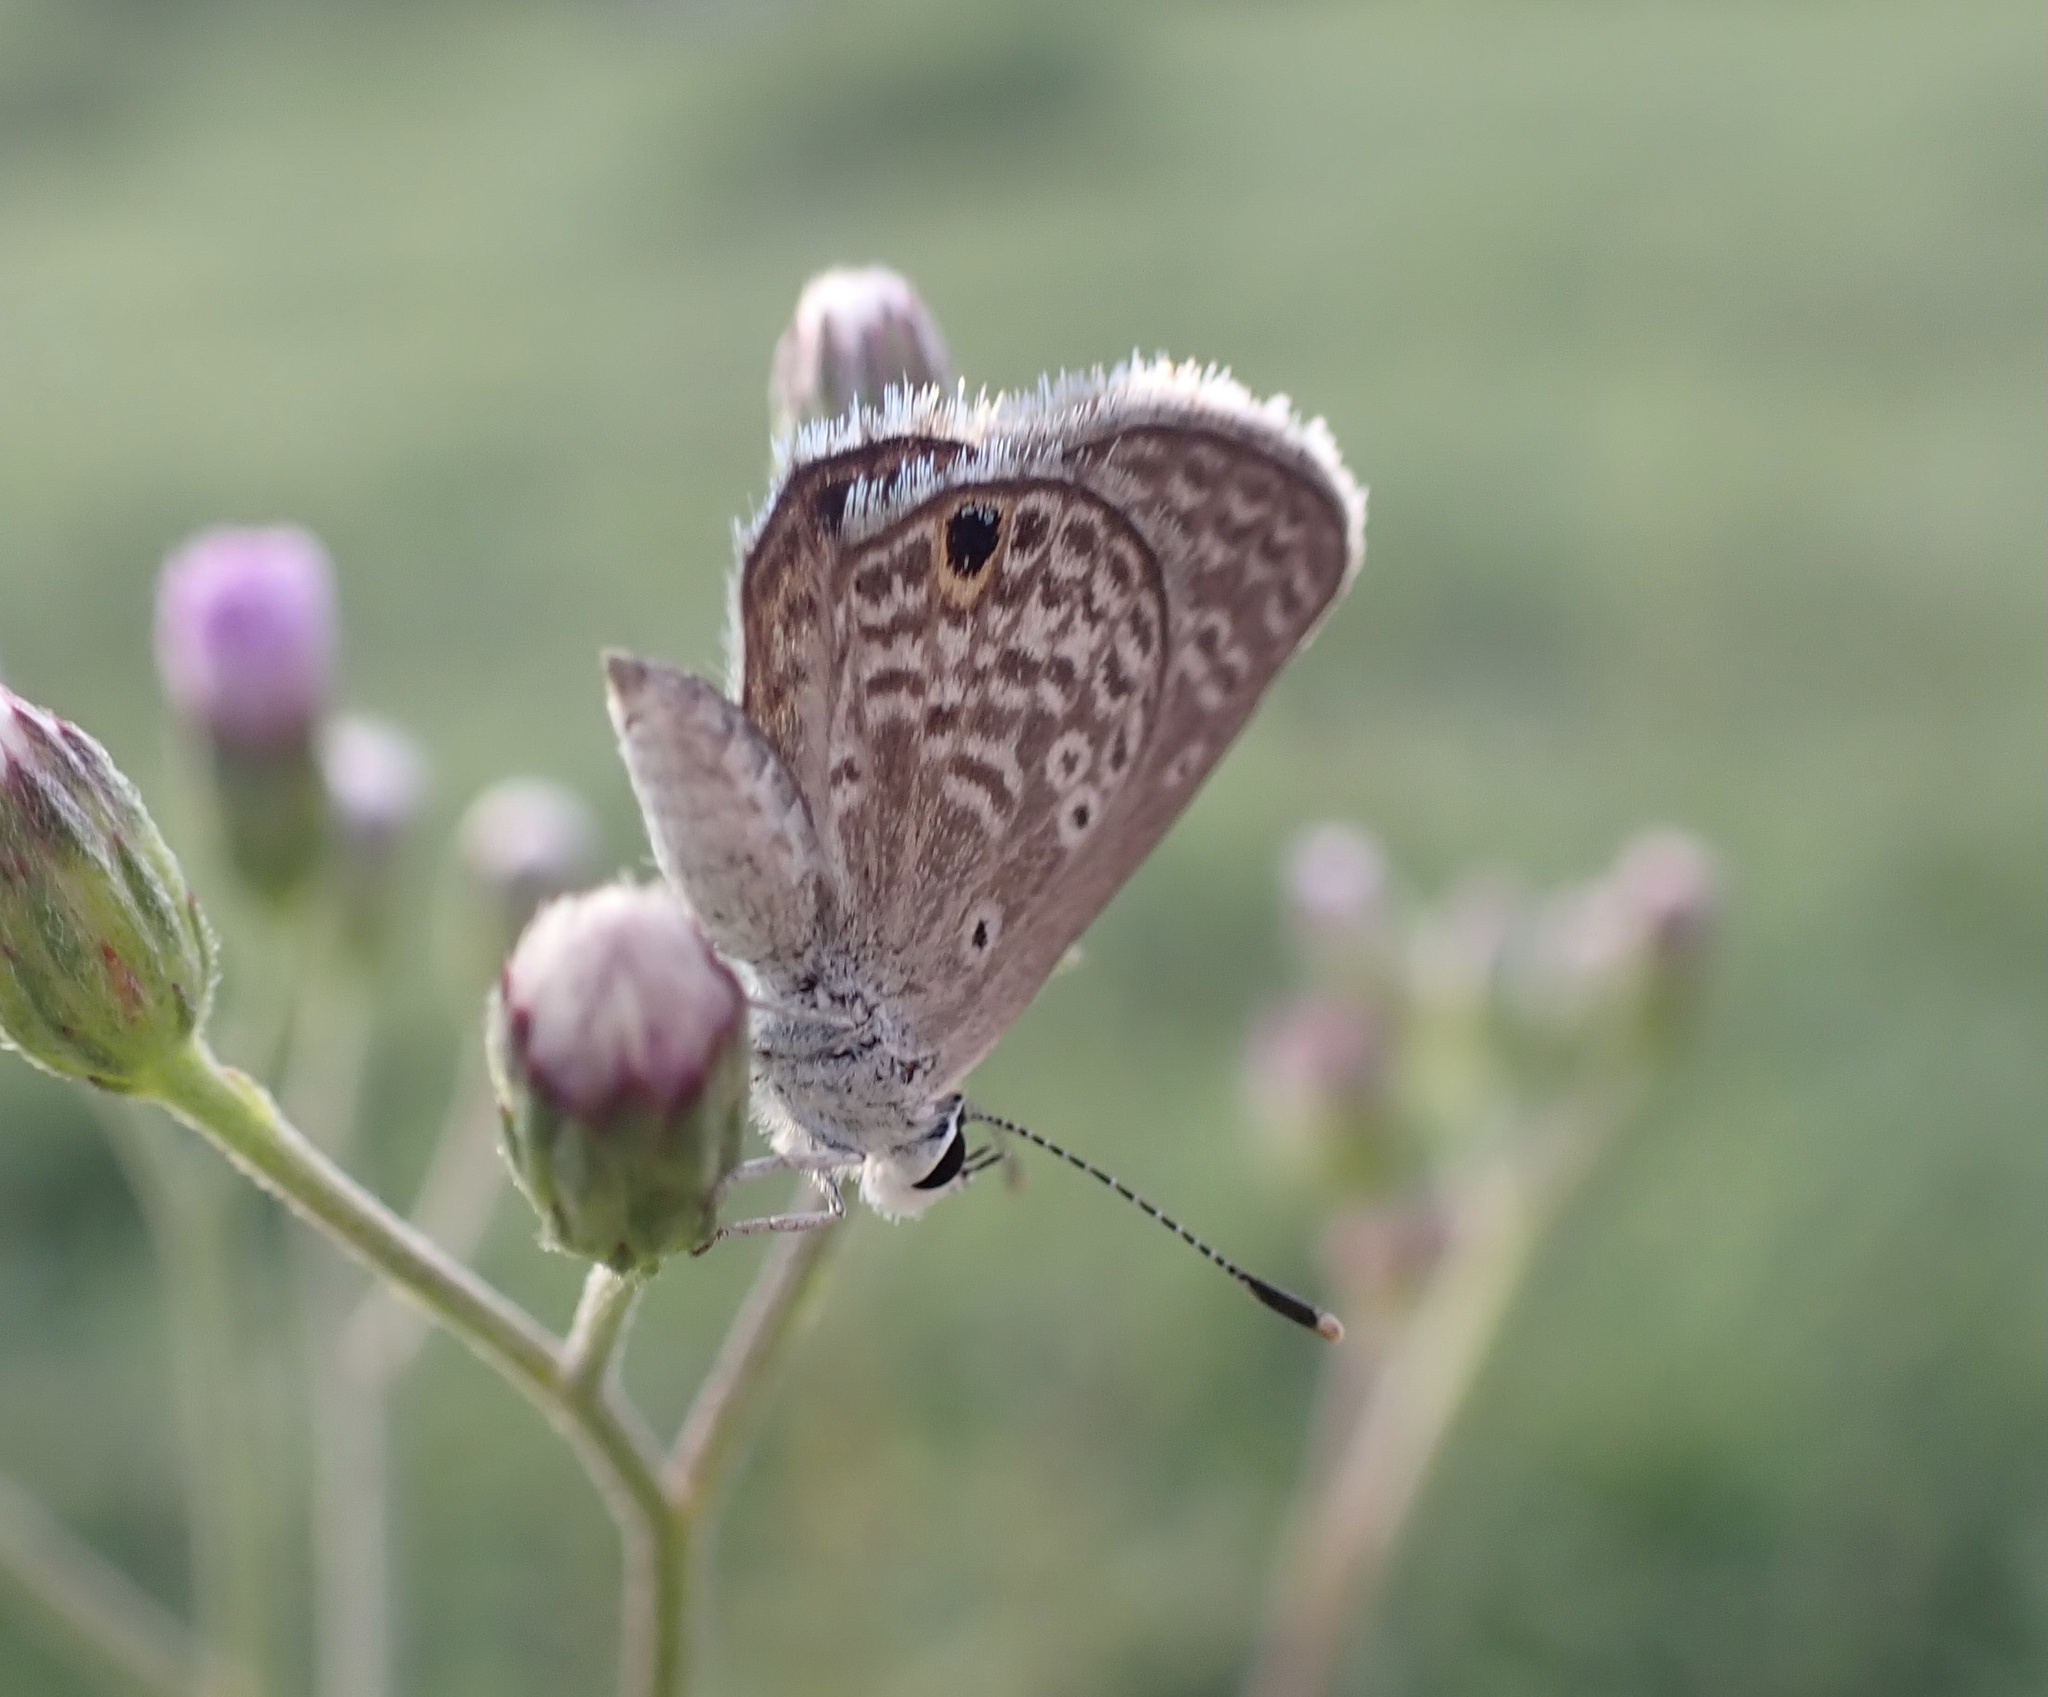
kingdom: Animalia
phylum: Arthropoda
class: Insecta
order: Lepidoptera
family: Lycaenidae
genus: Hemiargus
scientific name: Hemiargus hanno
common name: Common blue
